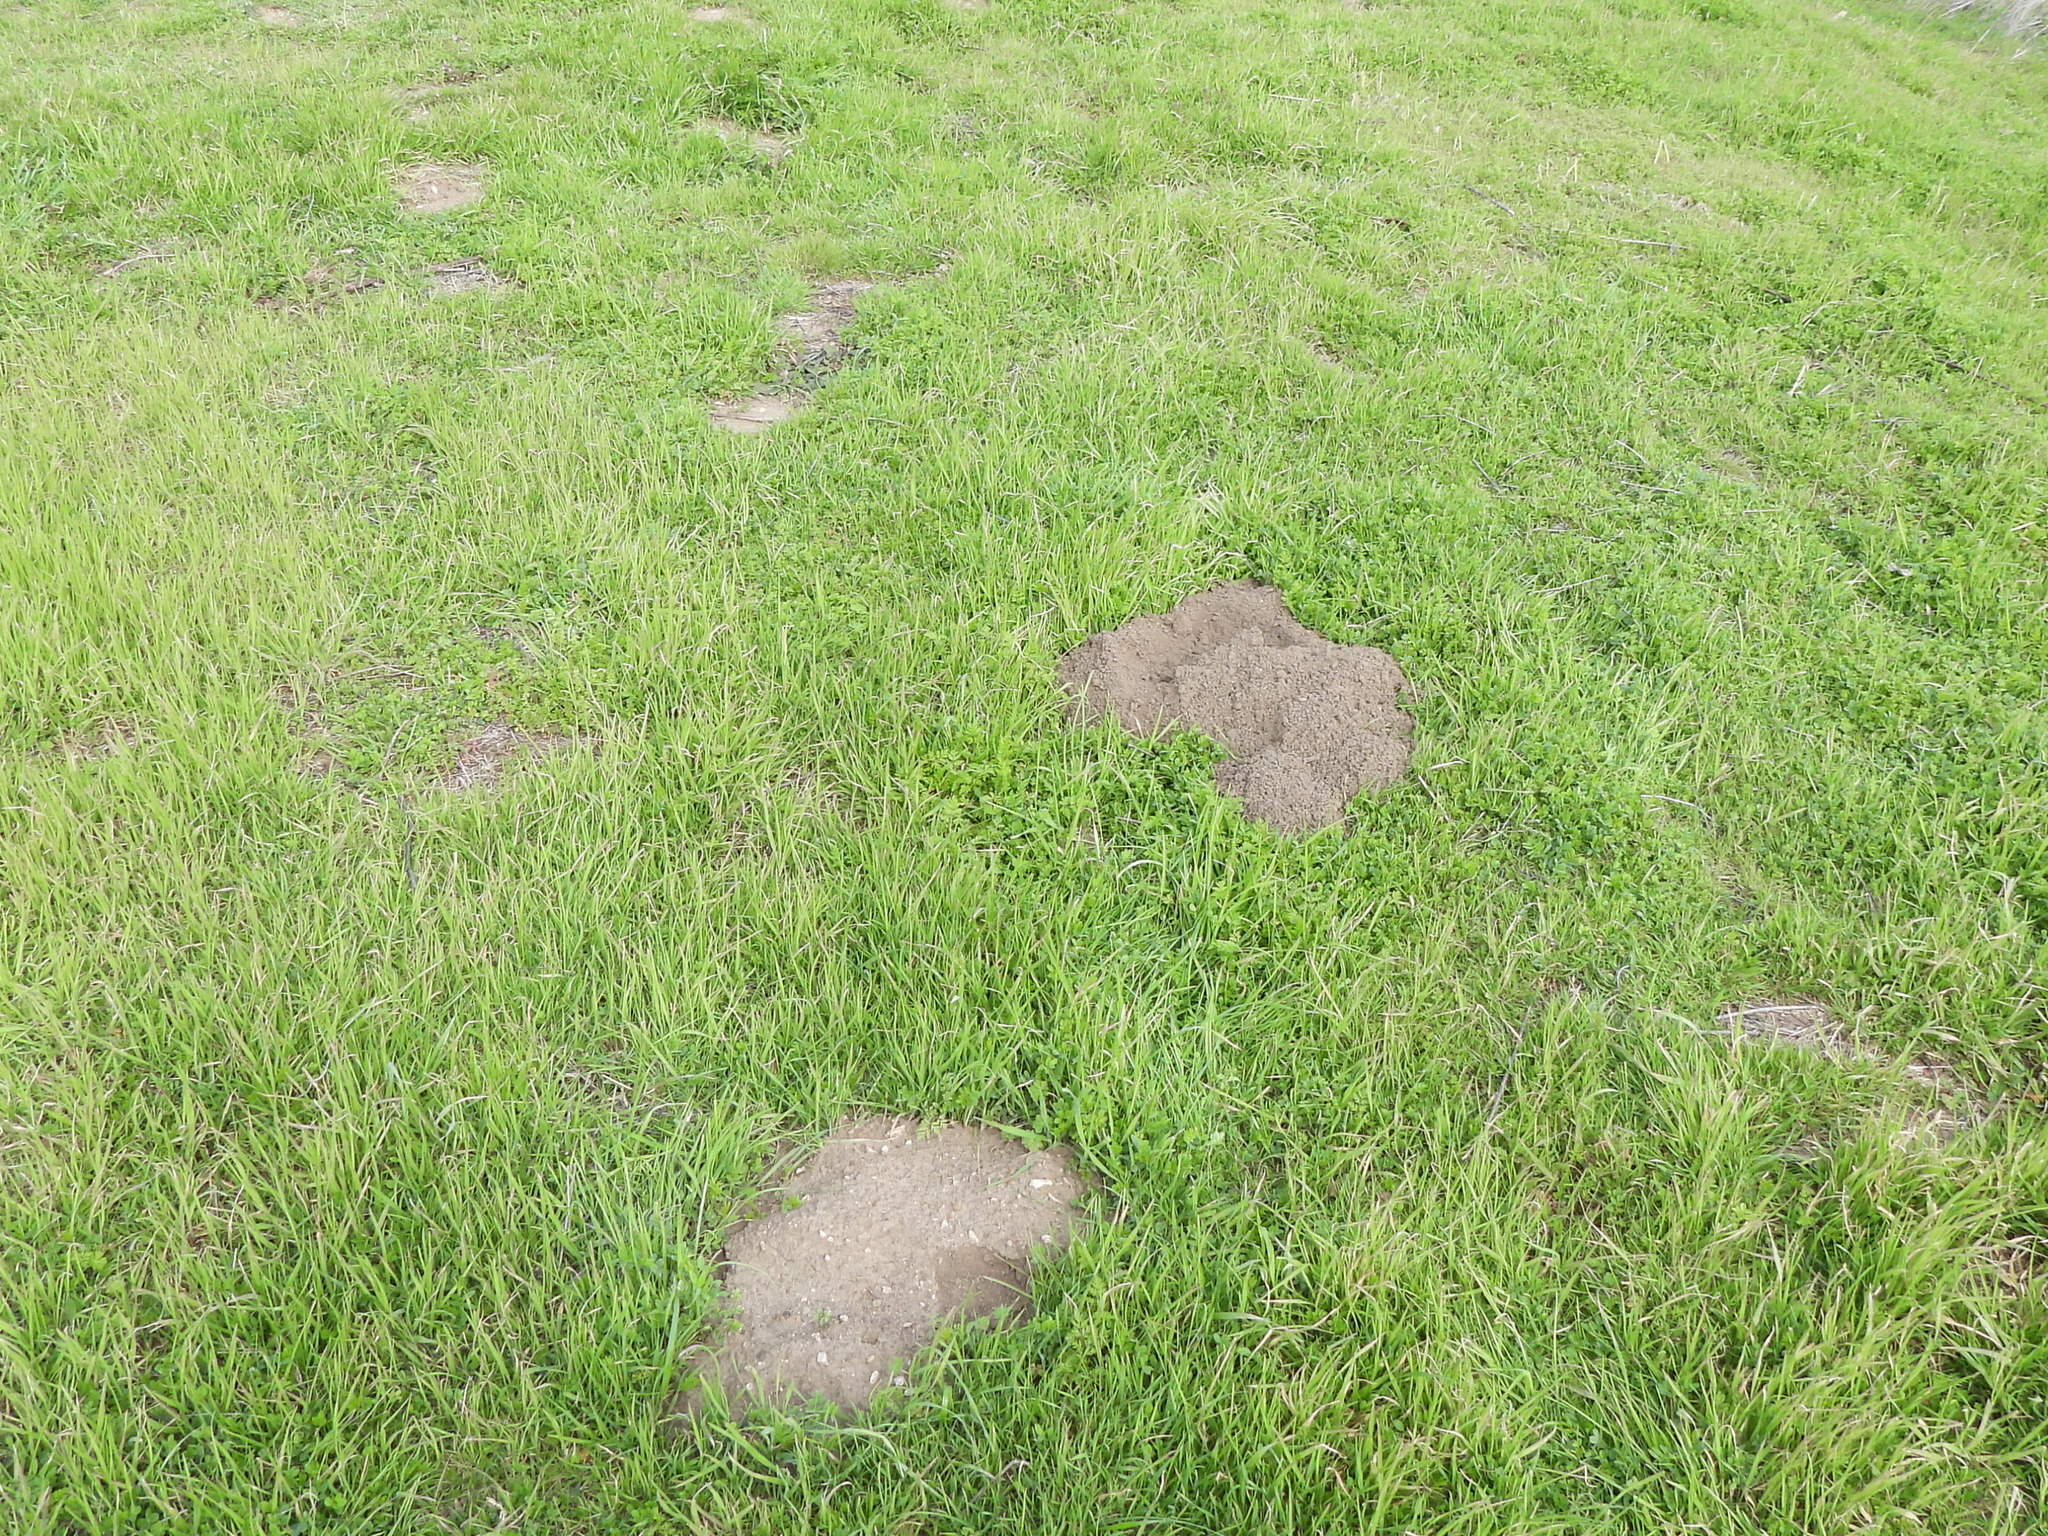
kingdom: Animalia
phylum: Chordata
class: Mammalia
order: Rodentia
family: Geomyidae
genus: Geomys
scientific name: Geomys bursarius
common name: Plains pocket gopher
